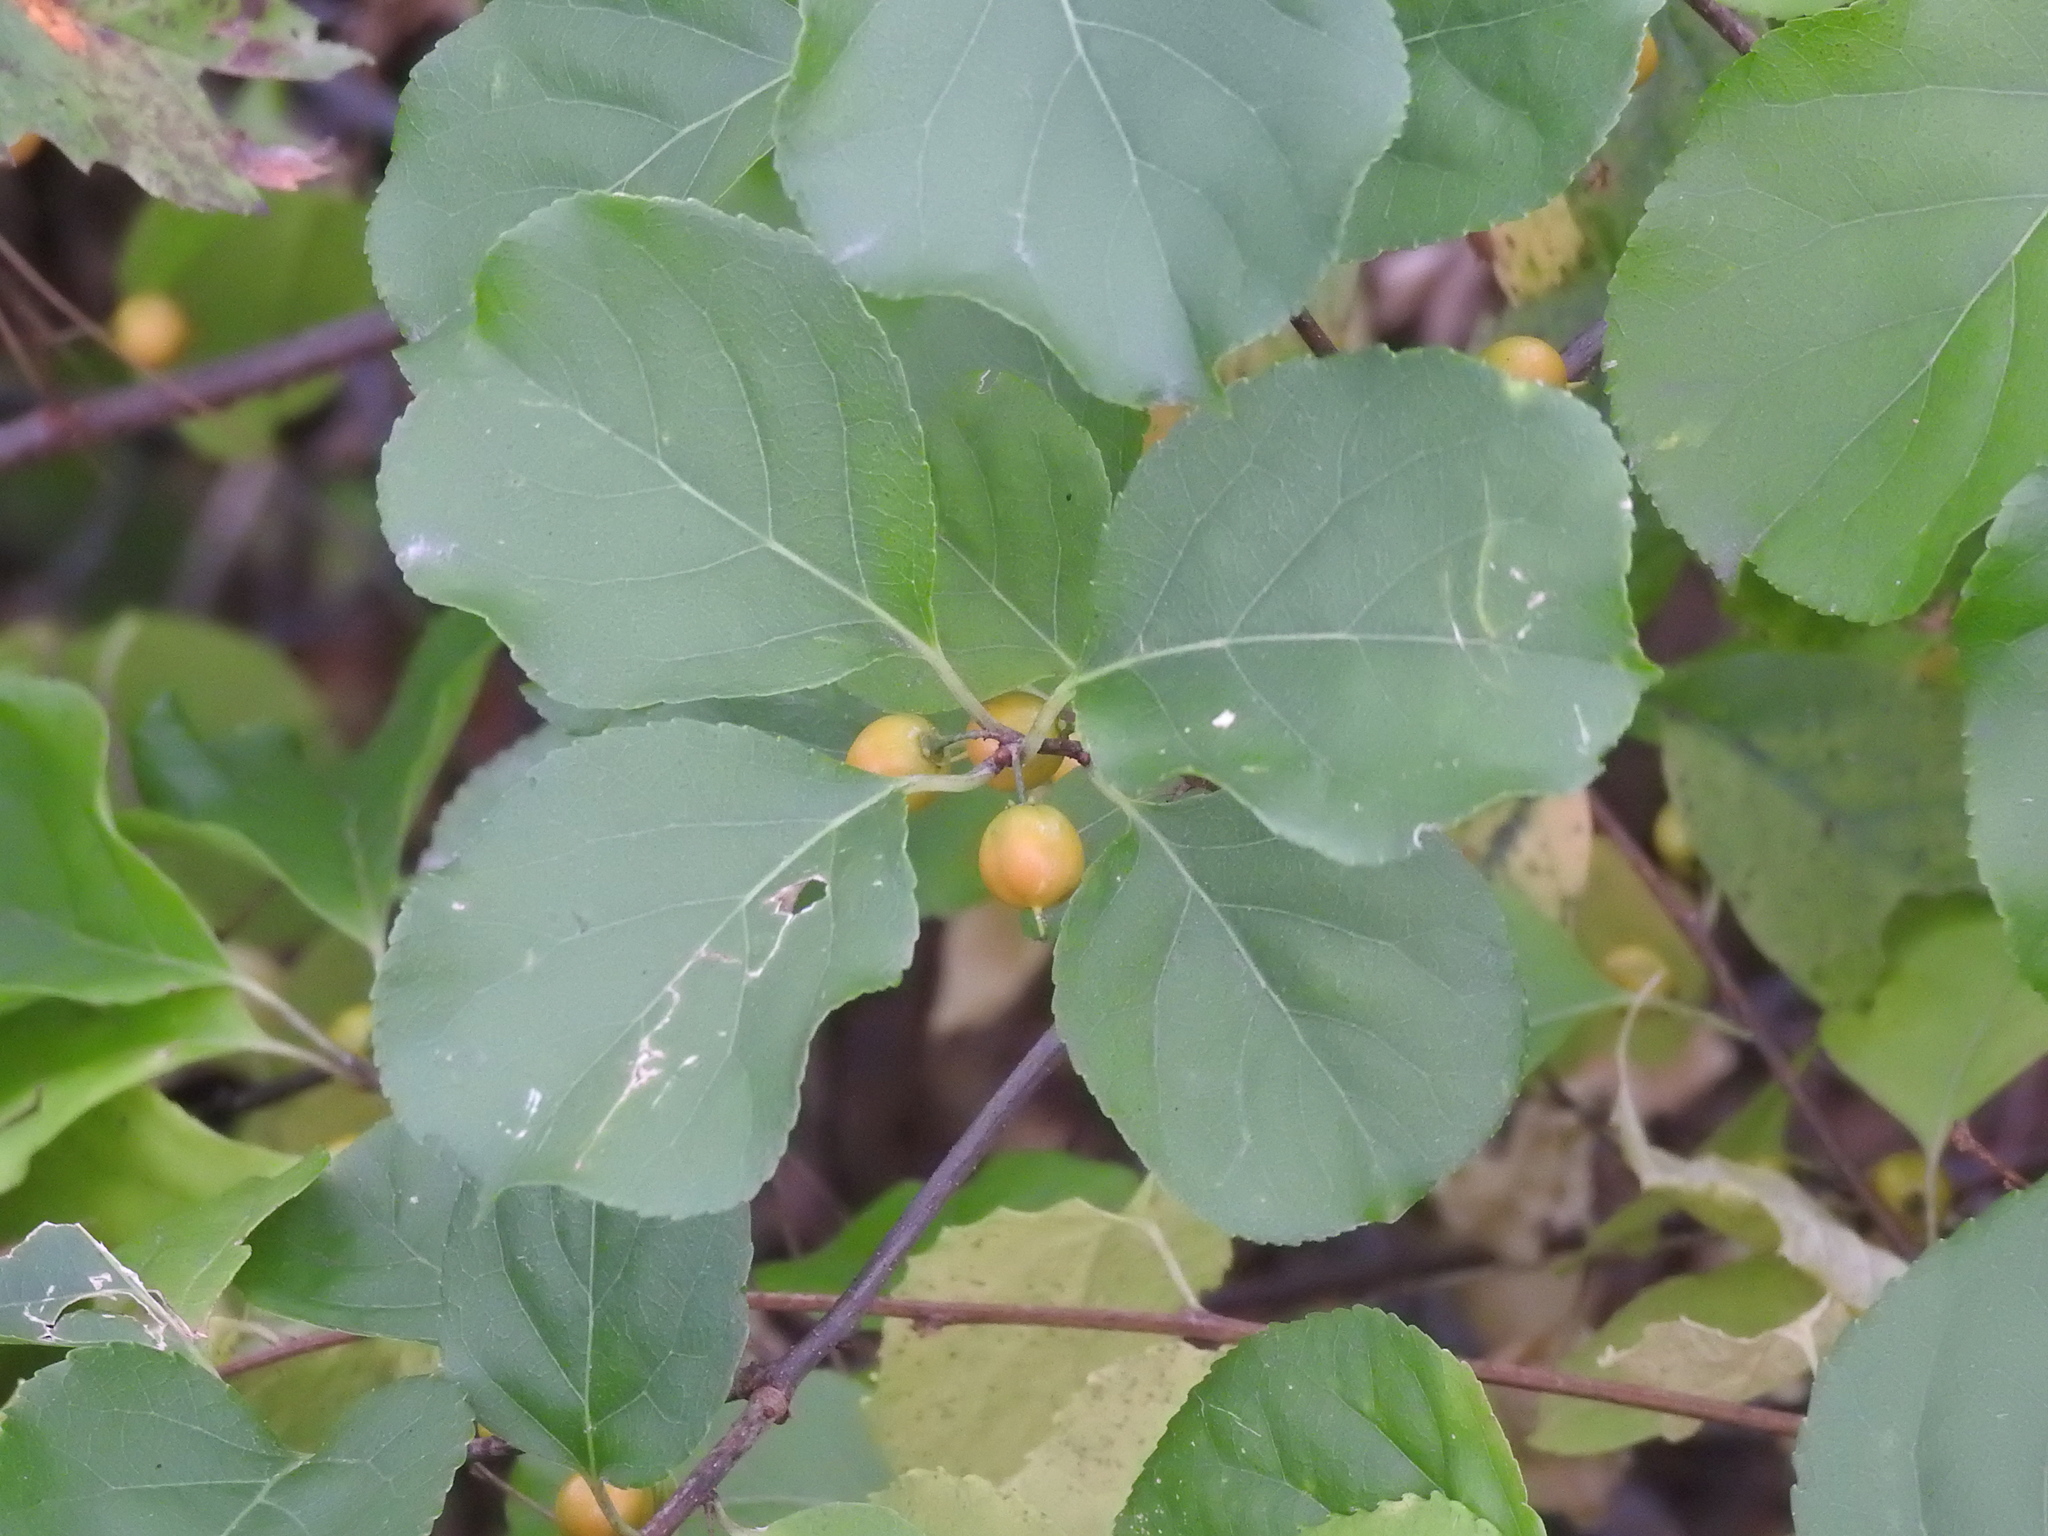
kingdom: Plantae
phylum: Tracheophyta
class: Magnoliopsida
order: Celastrales
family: Celastraceae
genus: Celastrus
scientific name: Celastrus orbiculatus
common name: Oriental bittersweet
